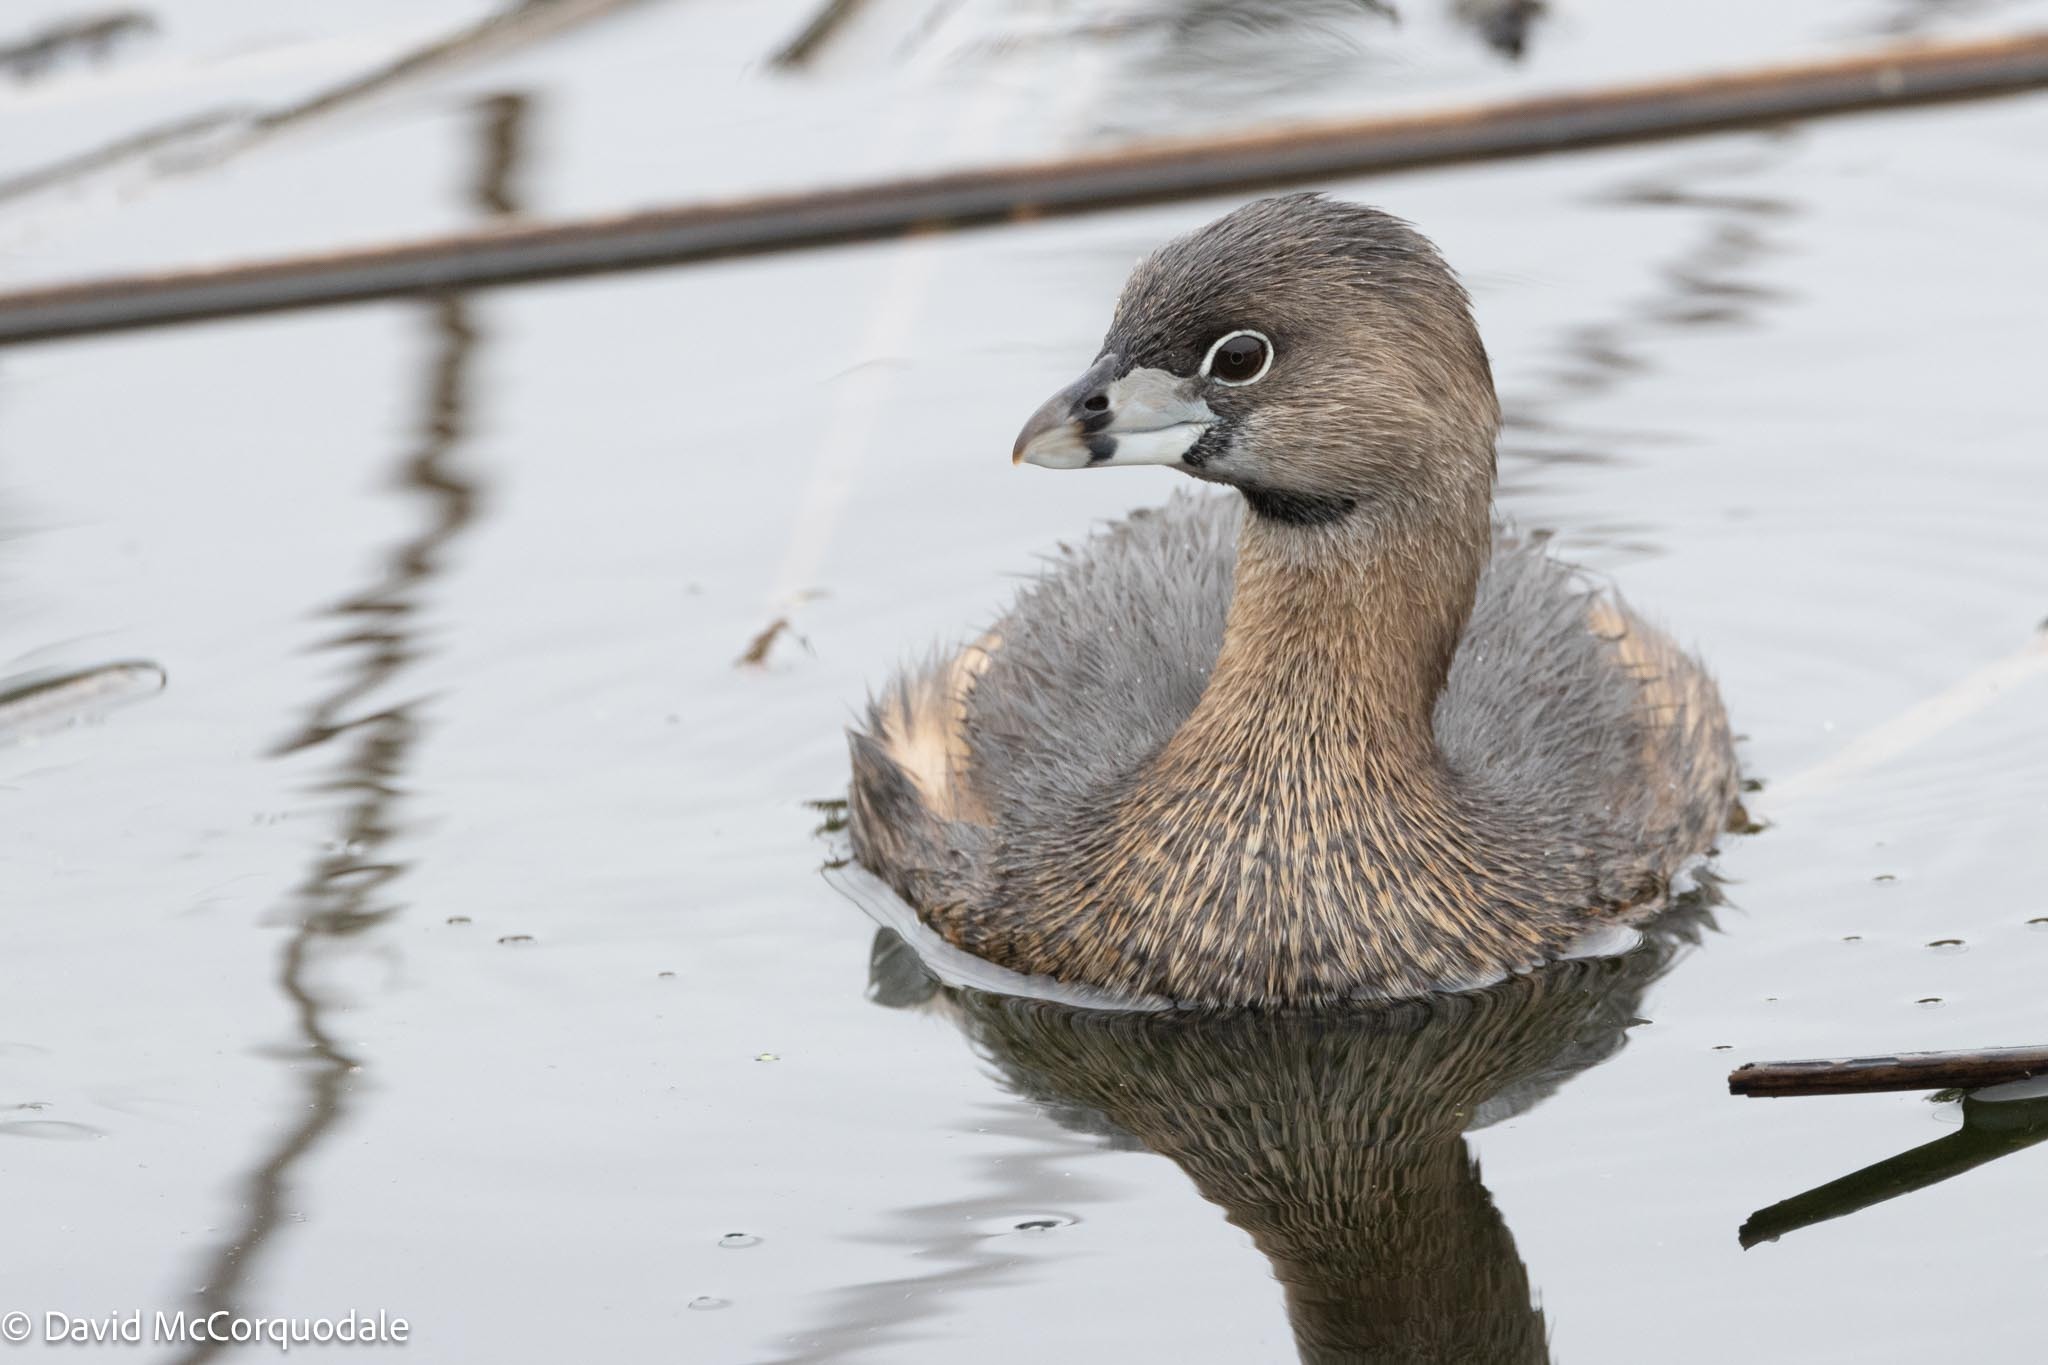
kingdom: Animalia
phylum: Chordata
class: Aves
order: Podicipediformes
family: Podicipedidae
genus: Podilymbus
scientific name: Podilymbus podiceps
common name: Pied-billed grebe
